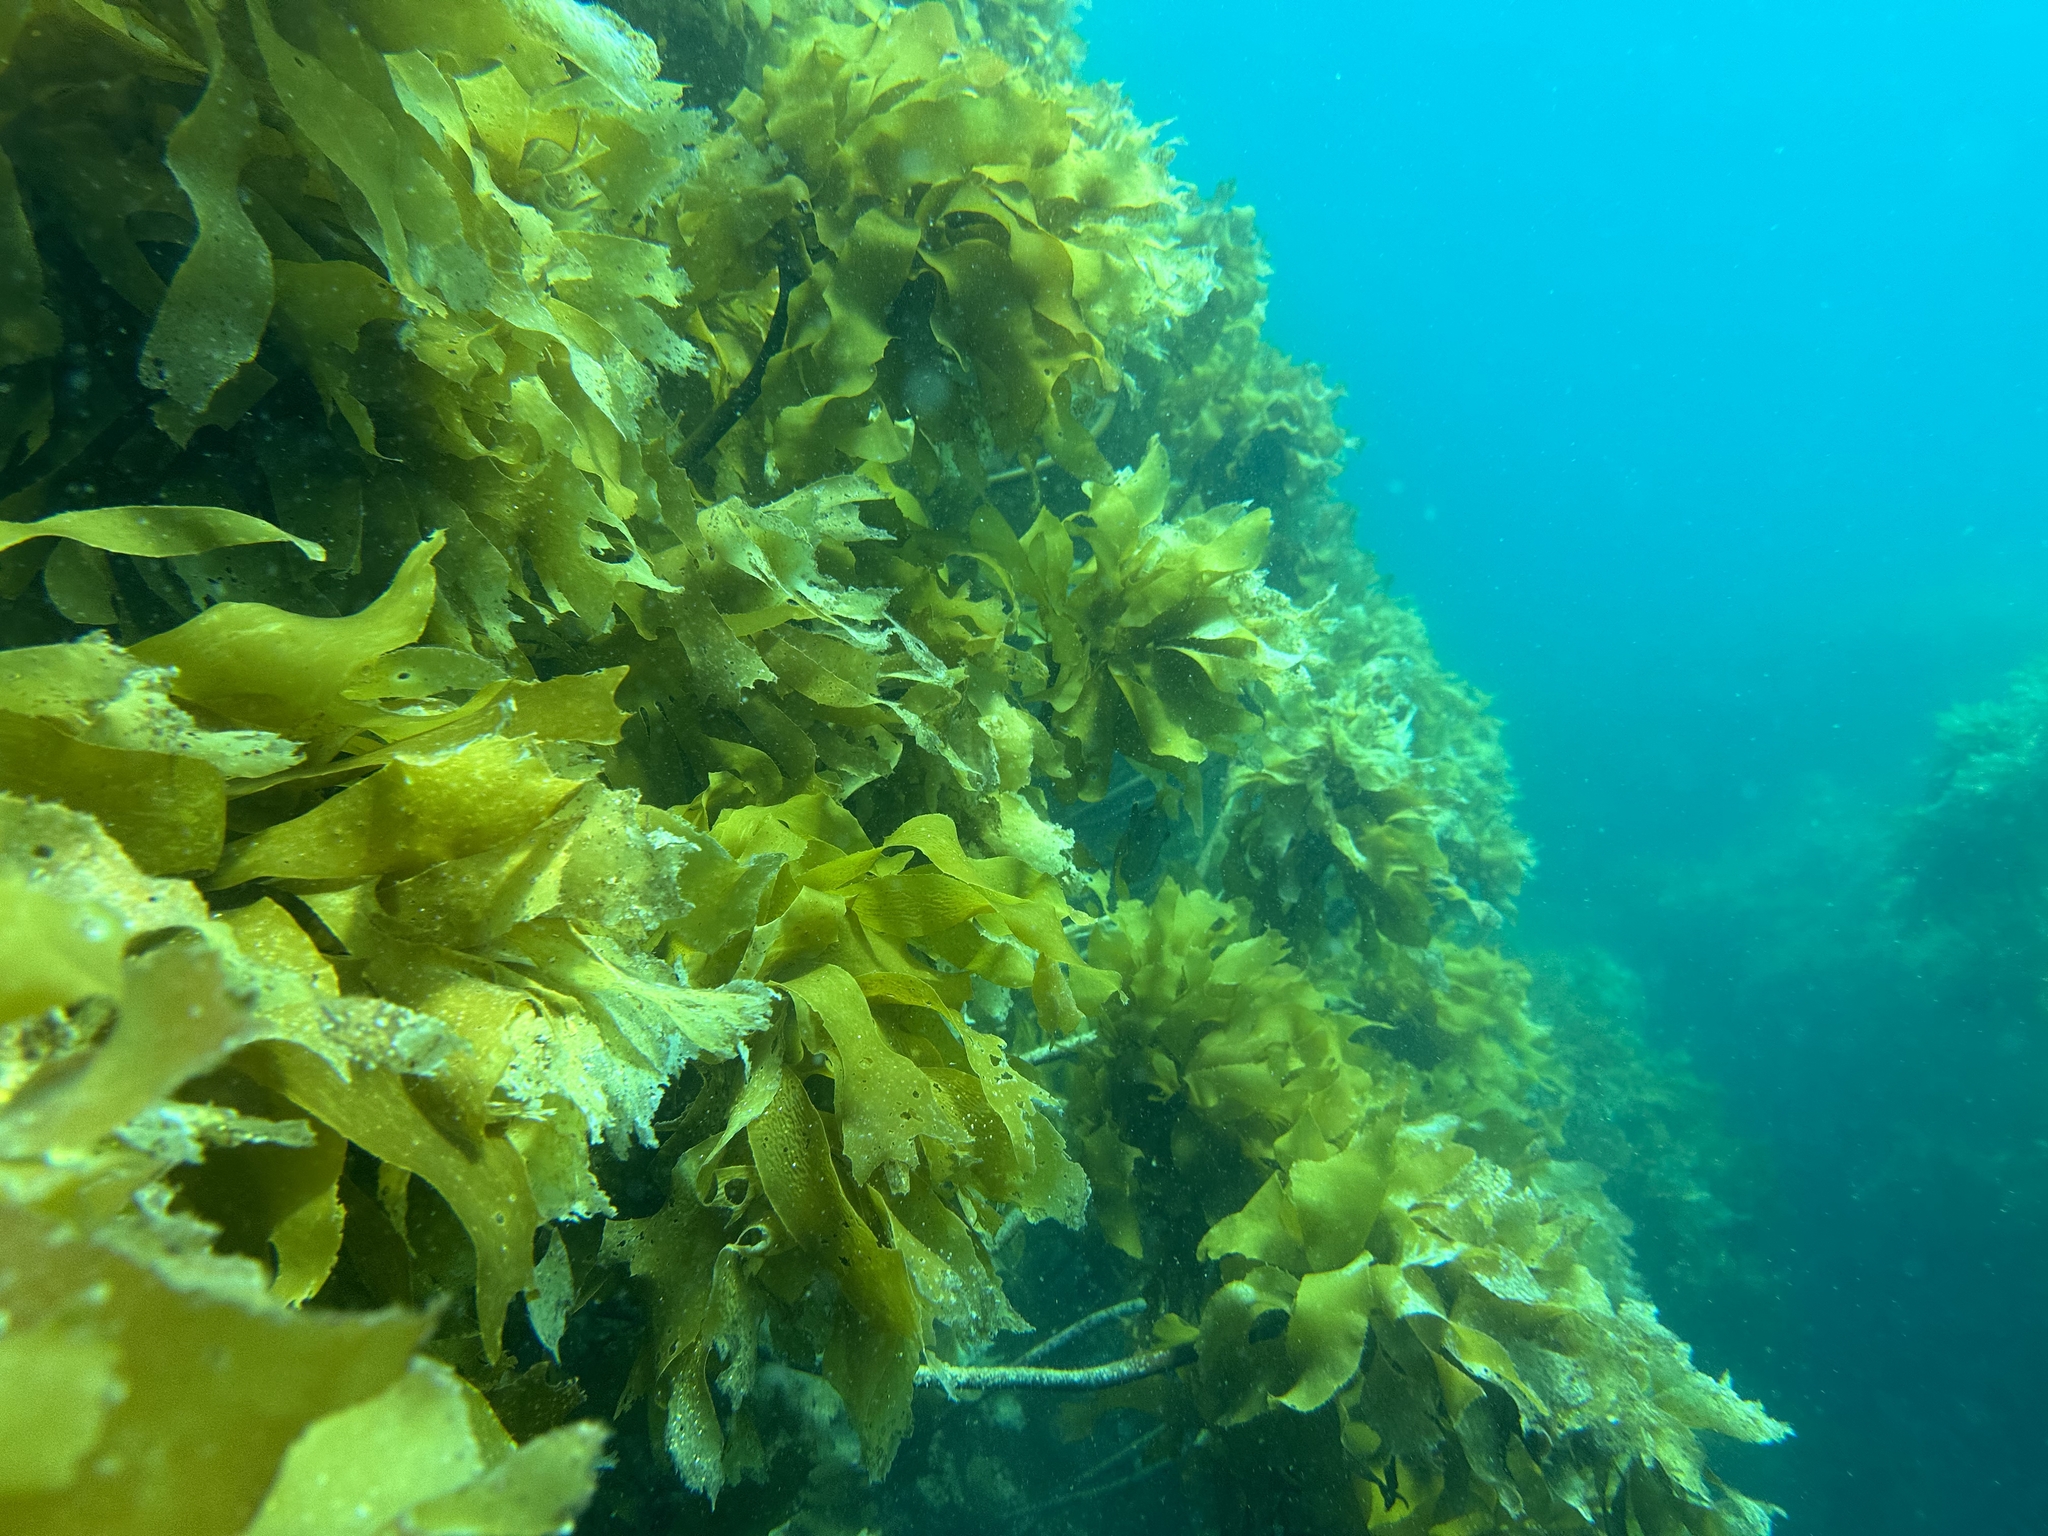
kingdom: Chromista
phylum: Ochrophyta
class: Phaeophyceae
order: Laminariales
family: Lessoniaceae
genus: Ecklonia
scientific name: Ecklonia radiata
